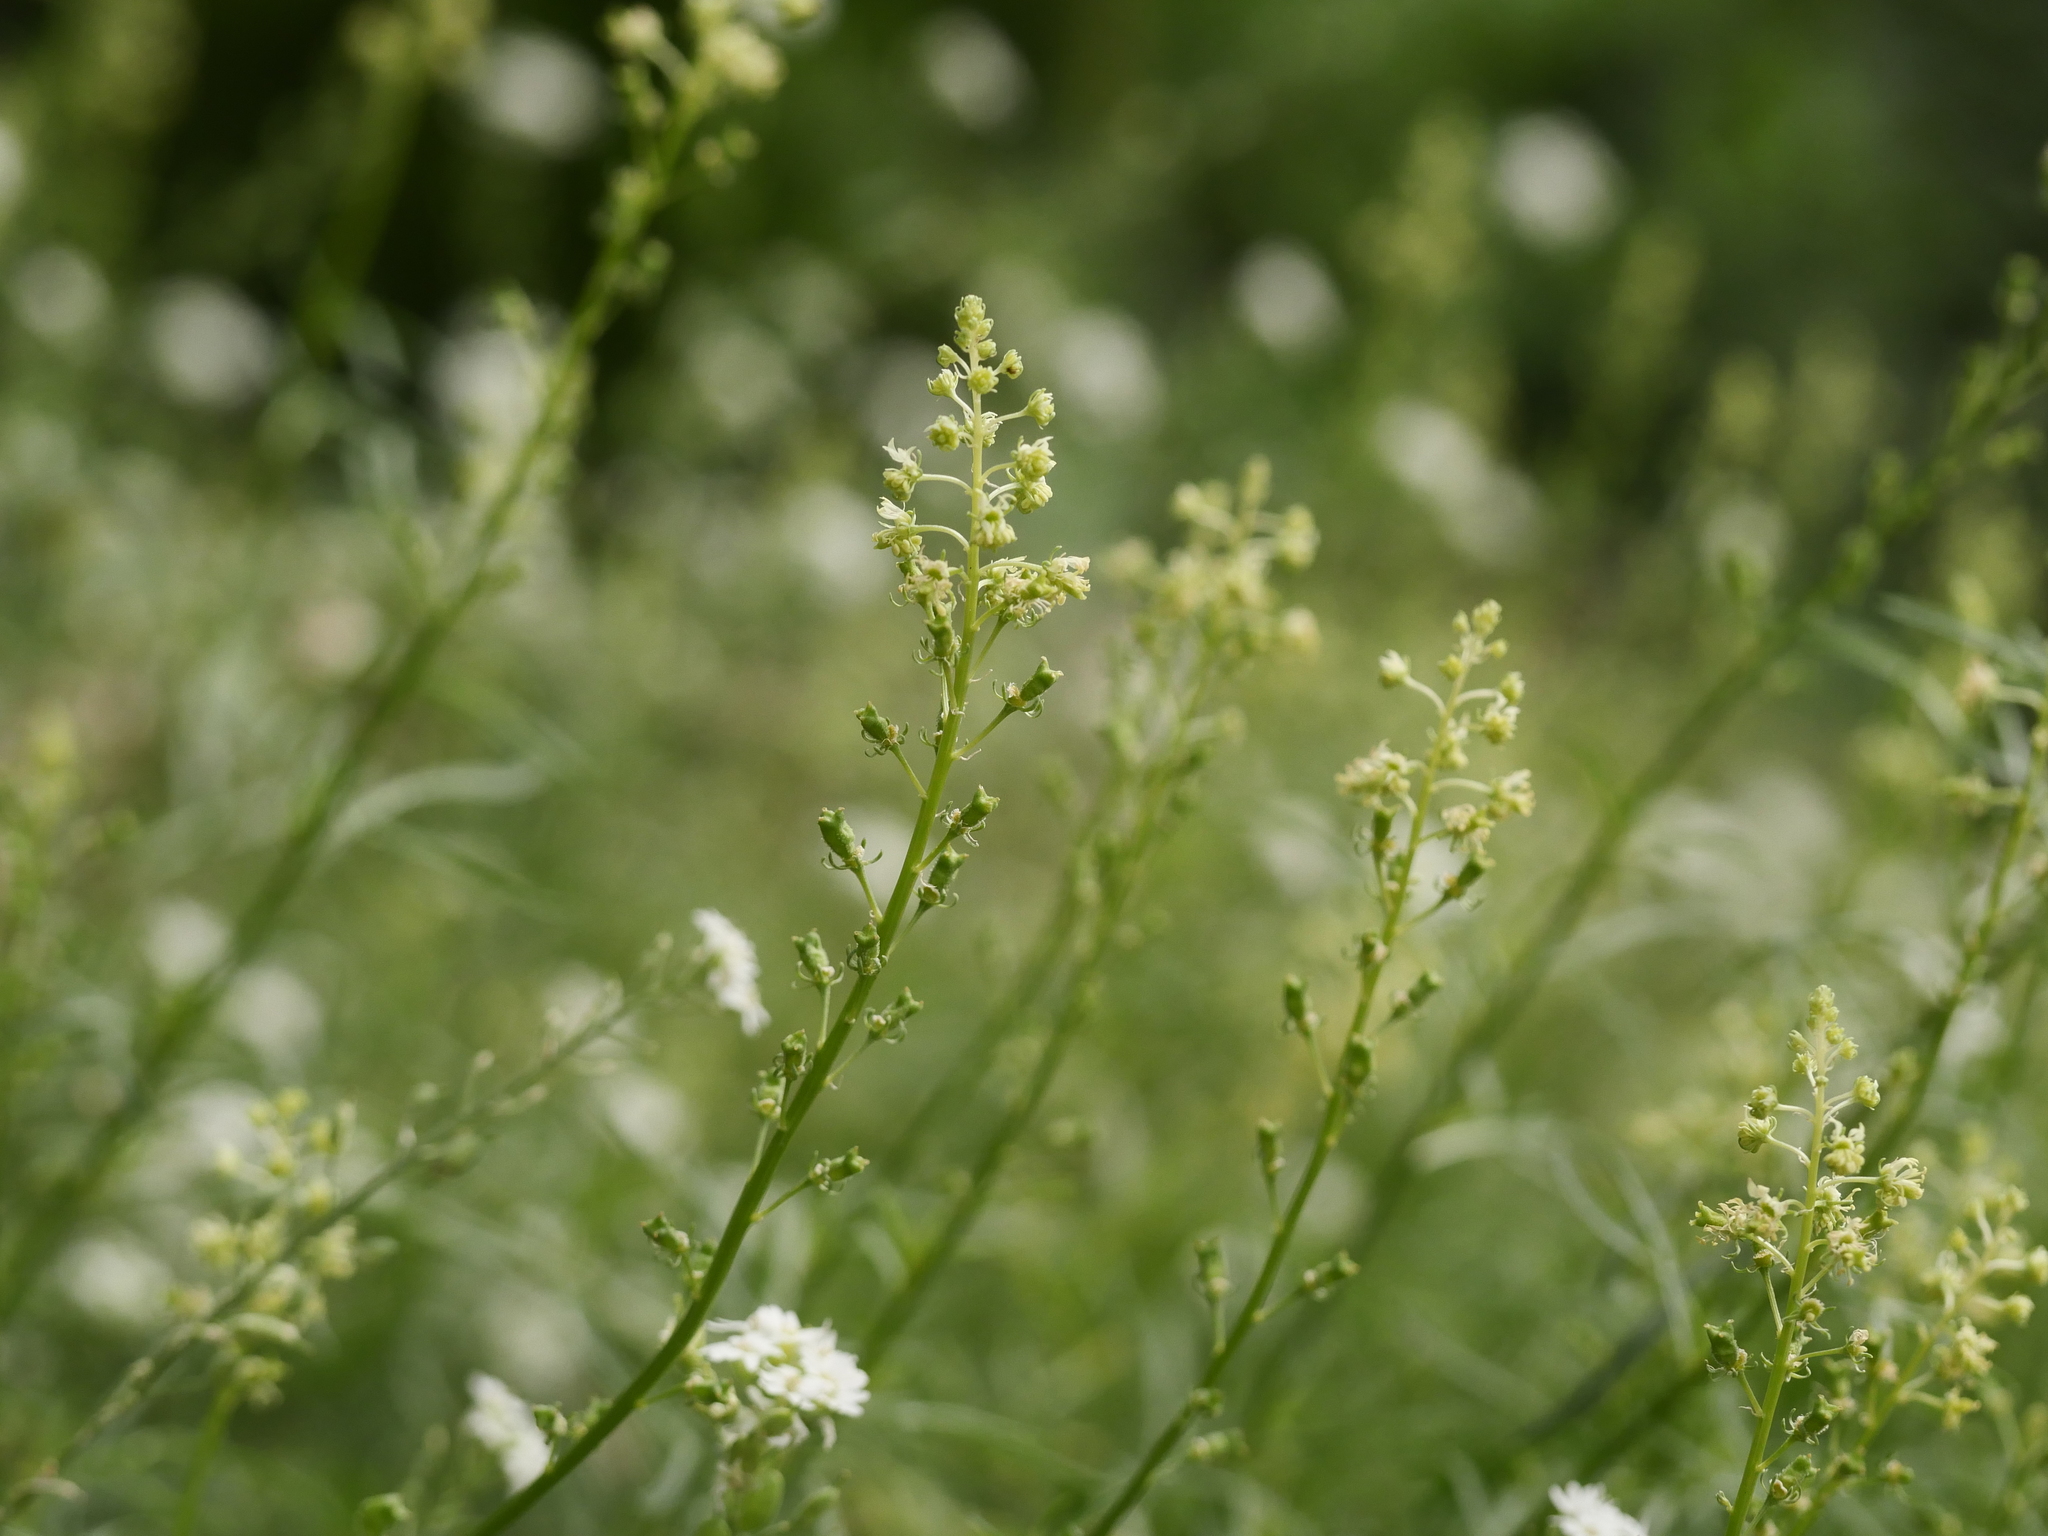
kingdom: Plantae
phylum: Tracheophyta
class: Magnoliopsida
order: Brassicales
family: Resedaceae
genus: Reseda
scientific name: Reseda lutea
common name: Wild mignonette
